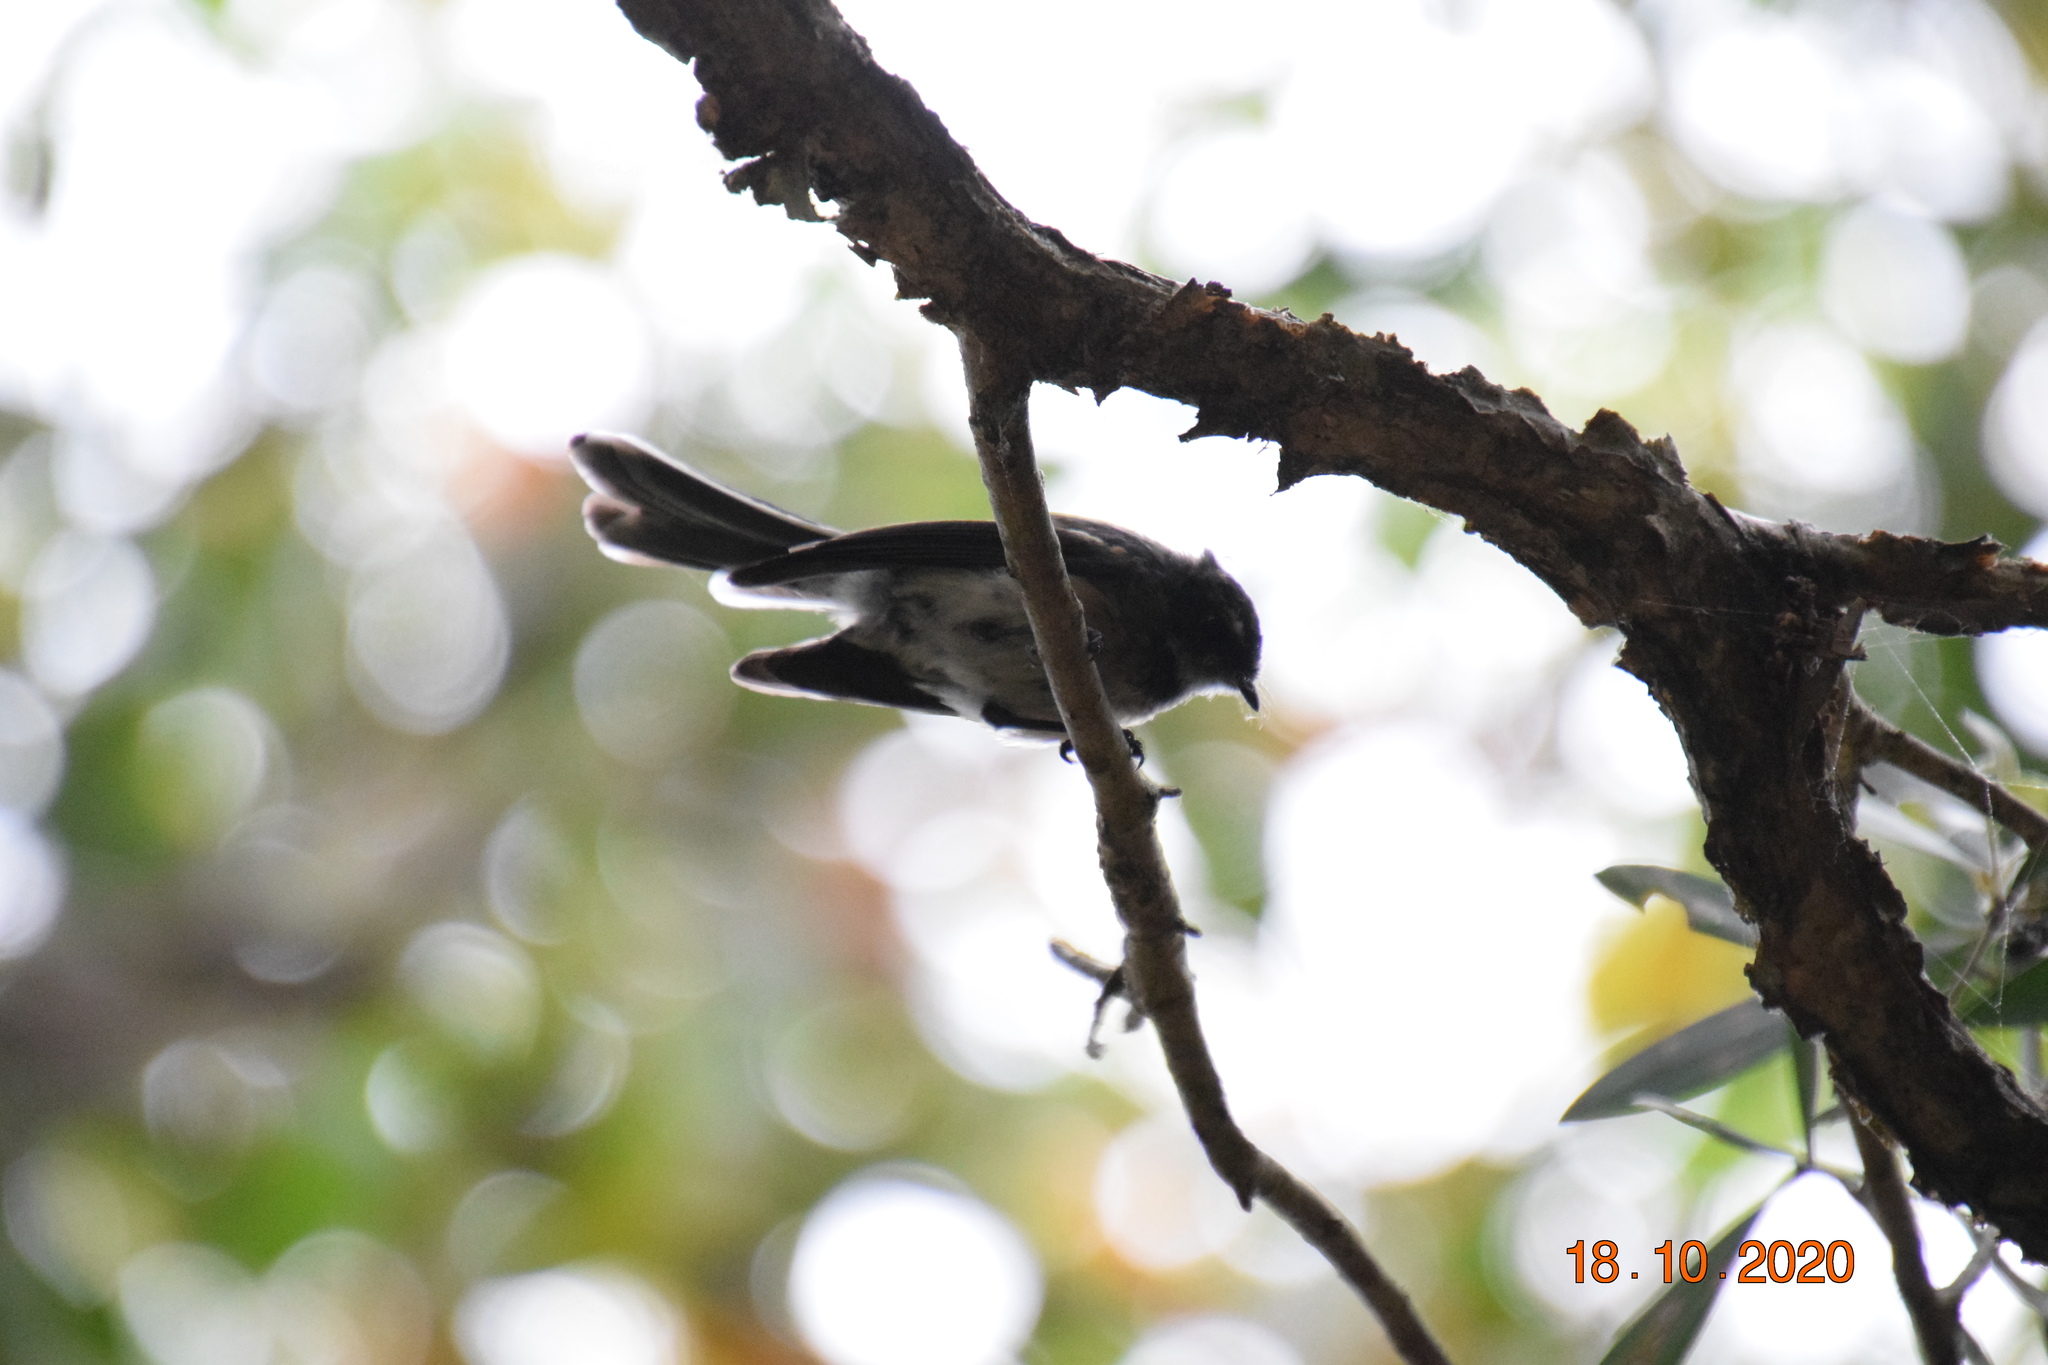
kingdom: Animalia
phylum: Chordata
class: Aves
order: Passeriformes
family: Rhipiduridae
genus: Rhipidura
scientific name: Rhipidura albiscapa
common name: Grey fantail
